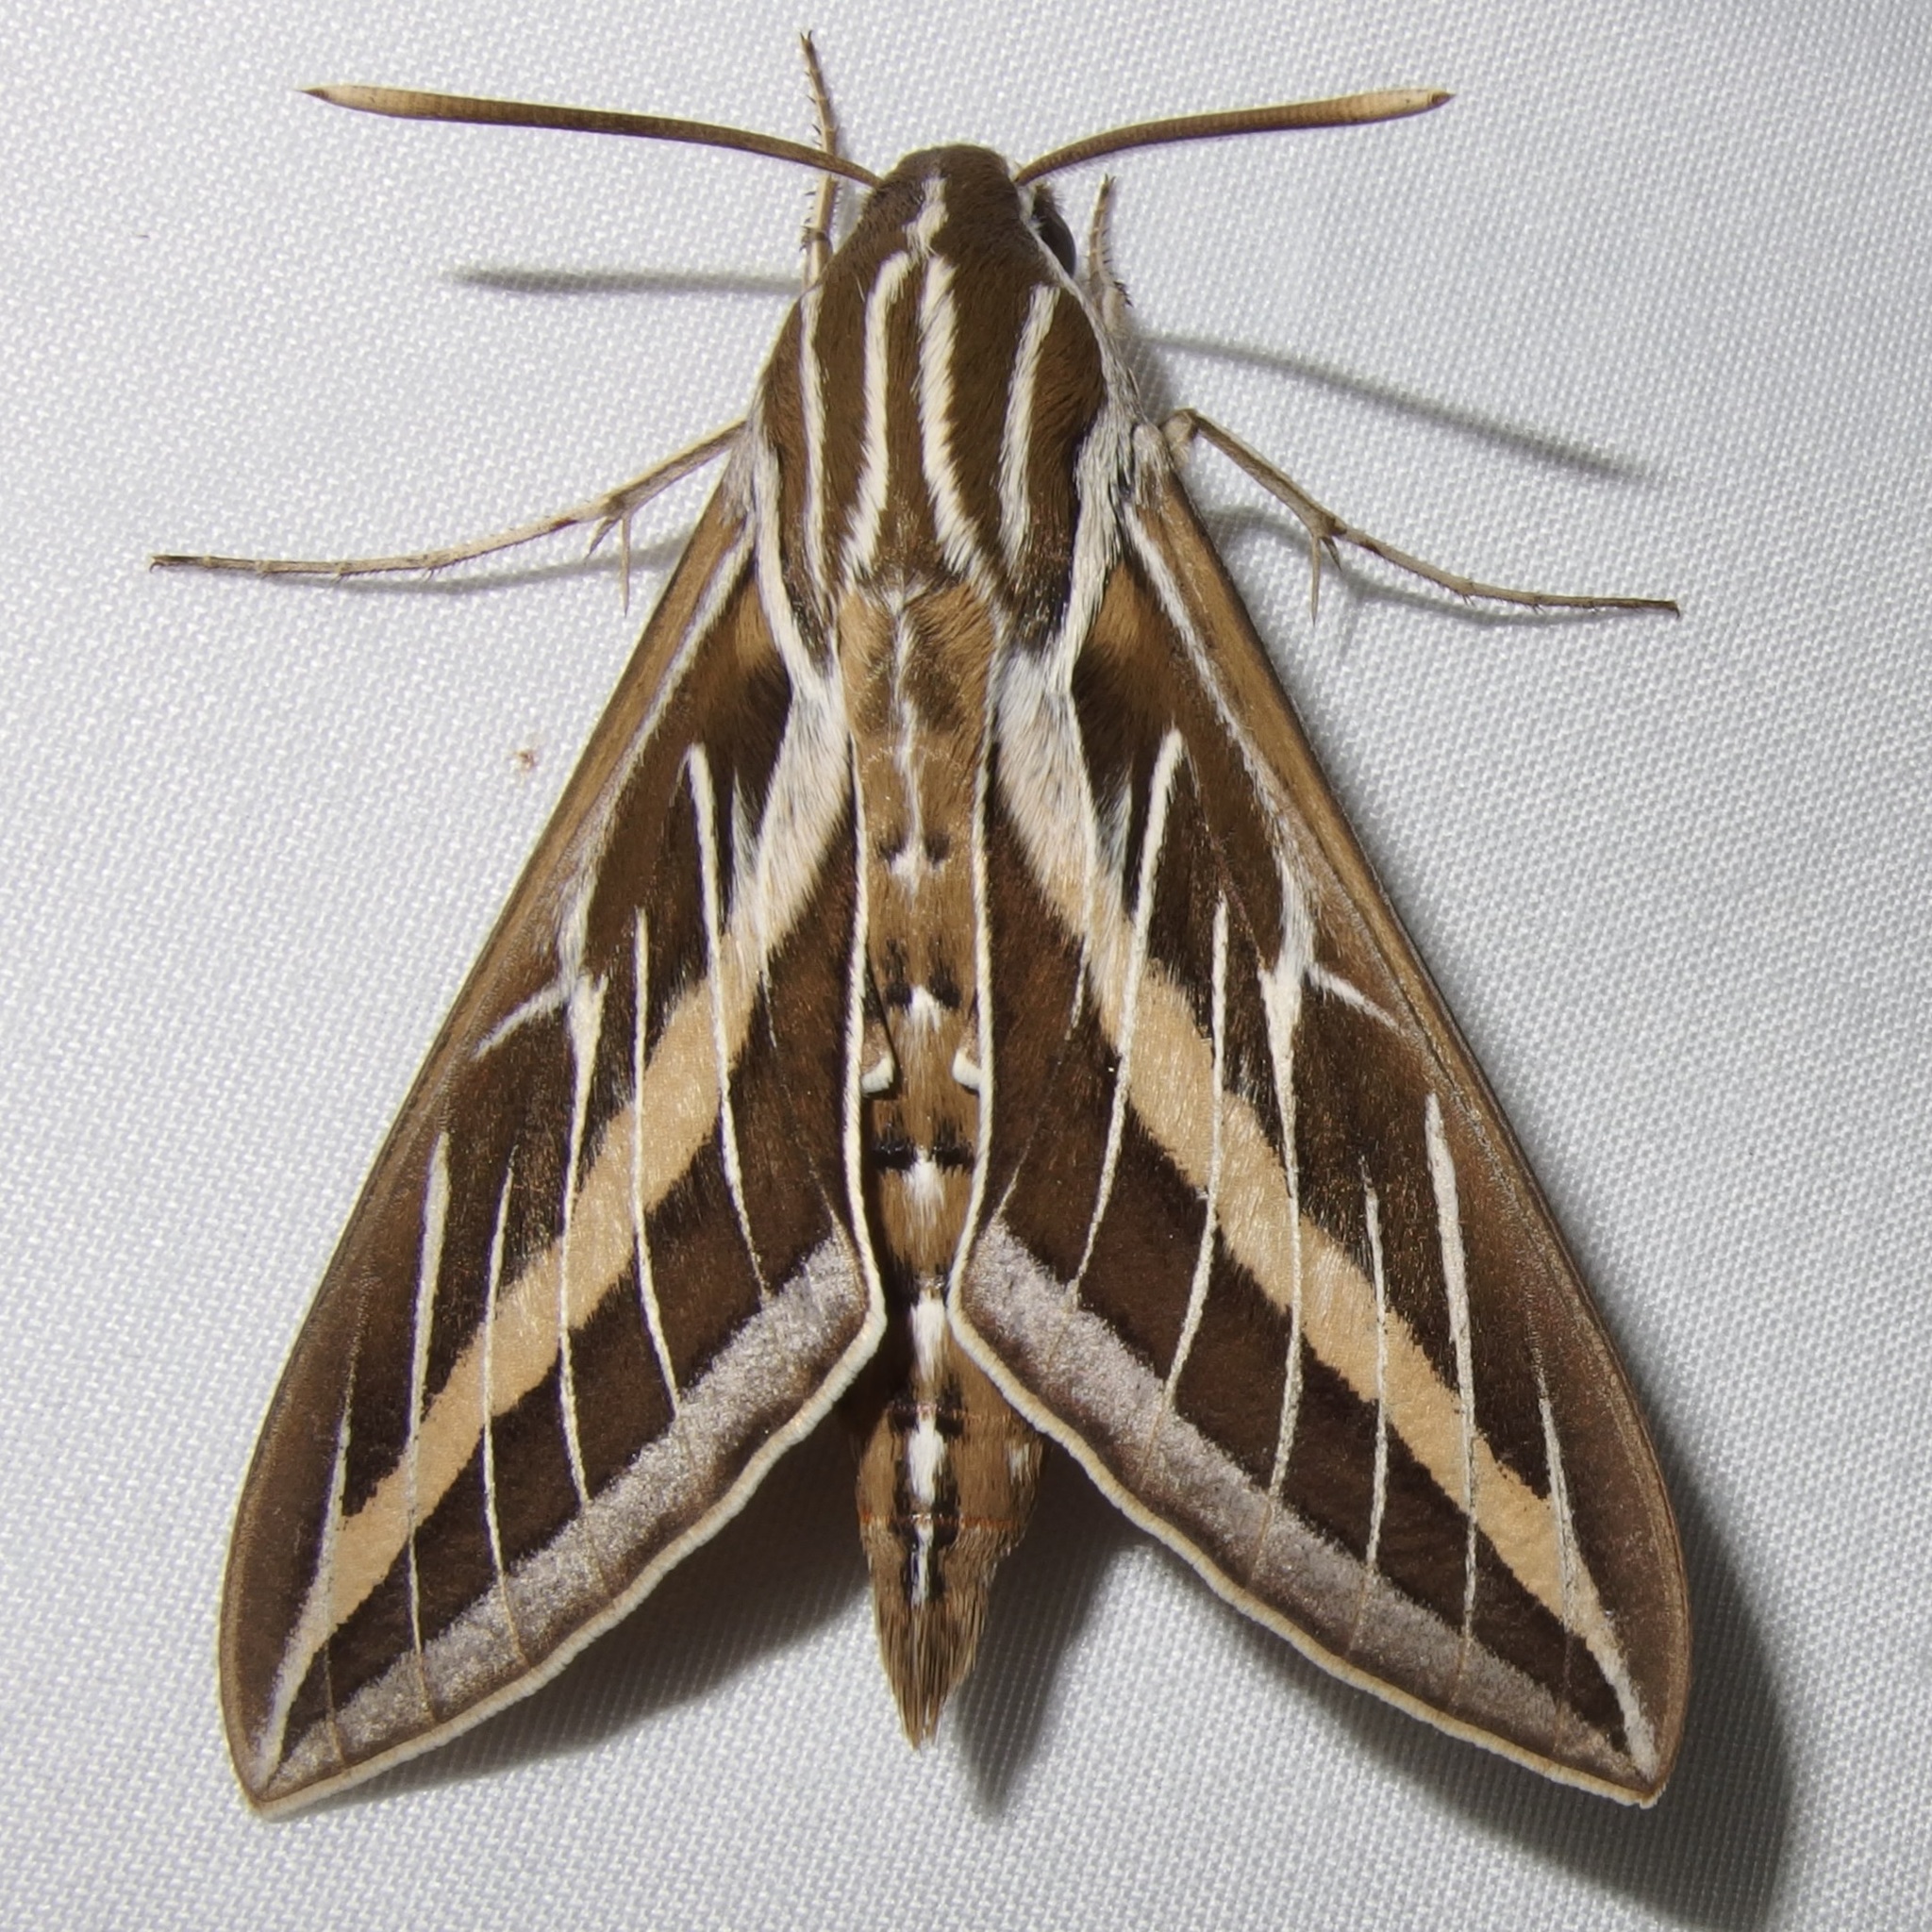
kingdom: Animalia
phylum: Arthropoda
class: Insecta
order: Lepidoptera
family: Sphingidae
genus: Hyles
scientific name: Hyles lineata
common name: White-lined sphinx
